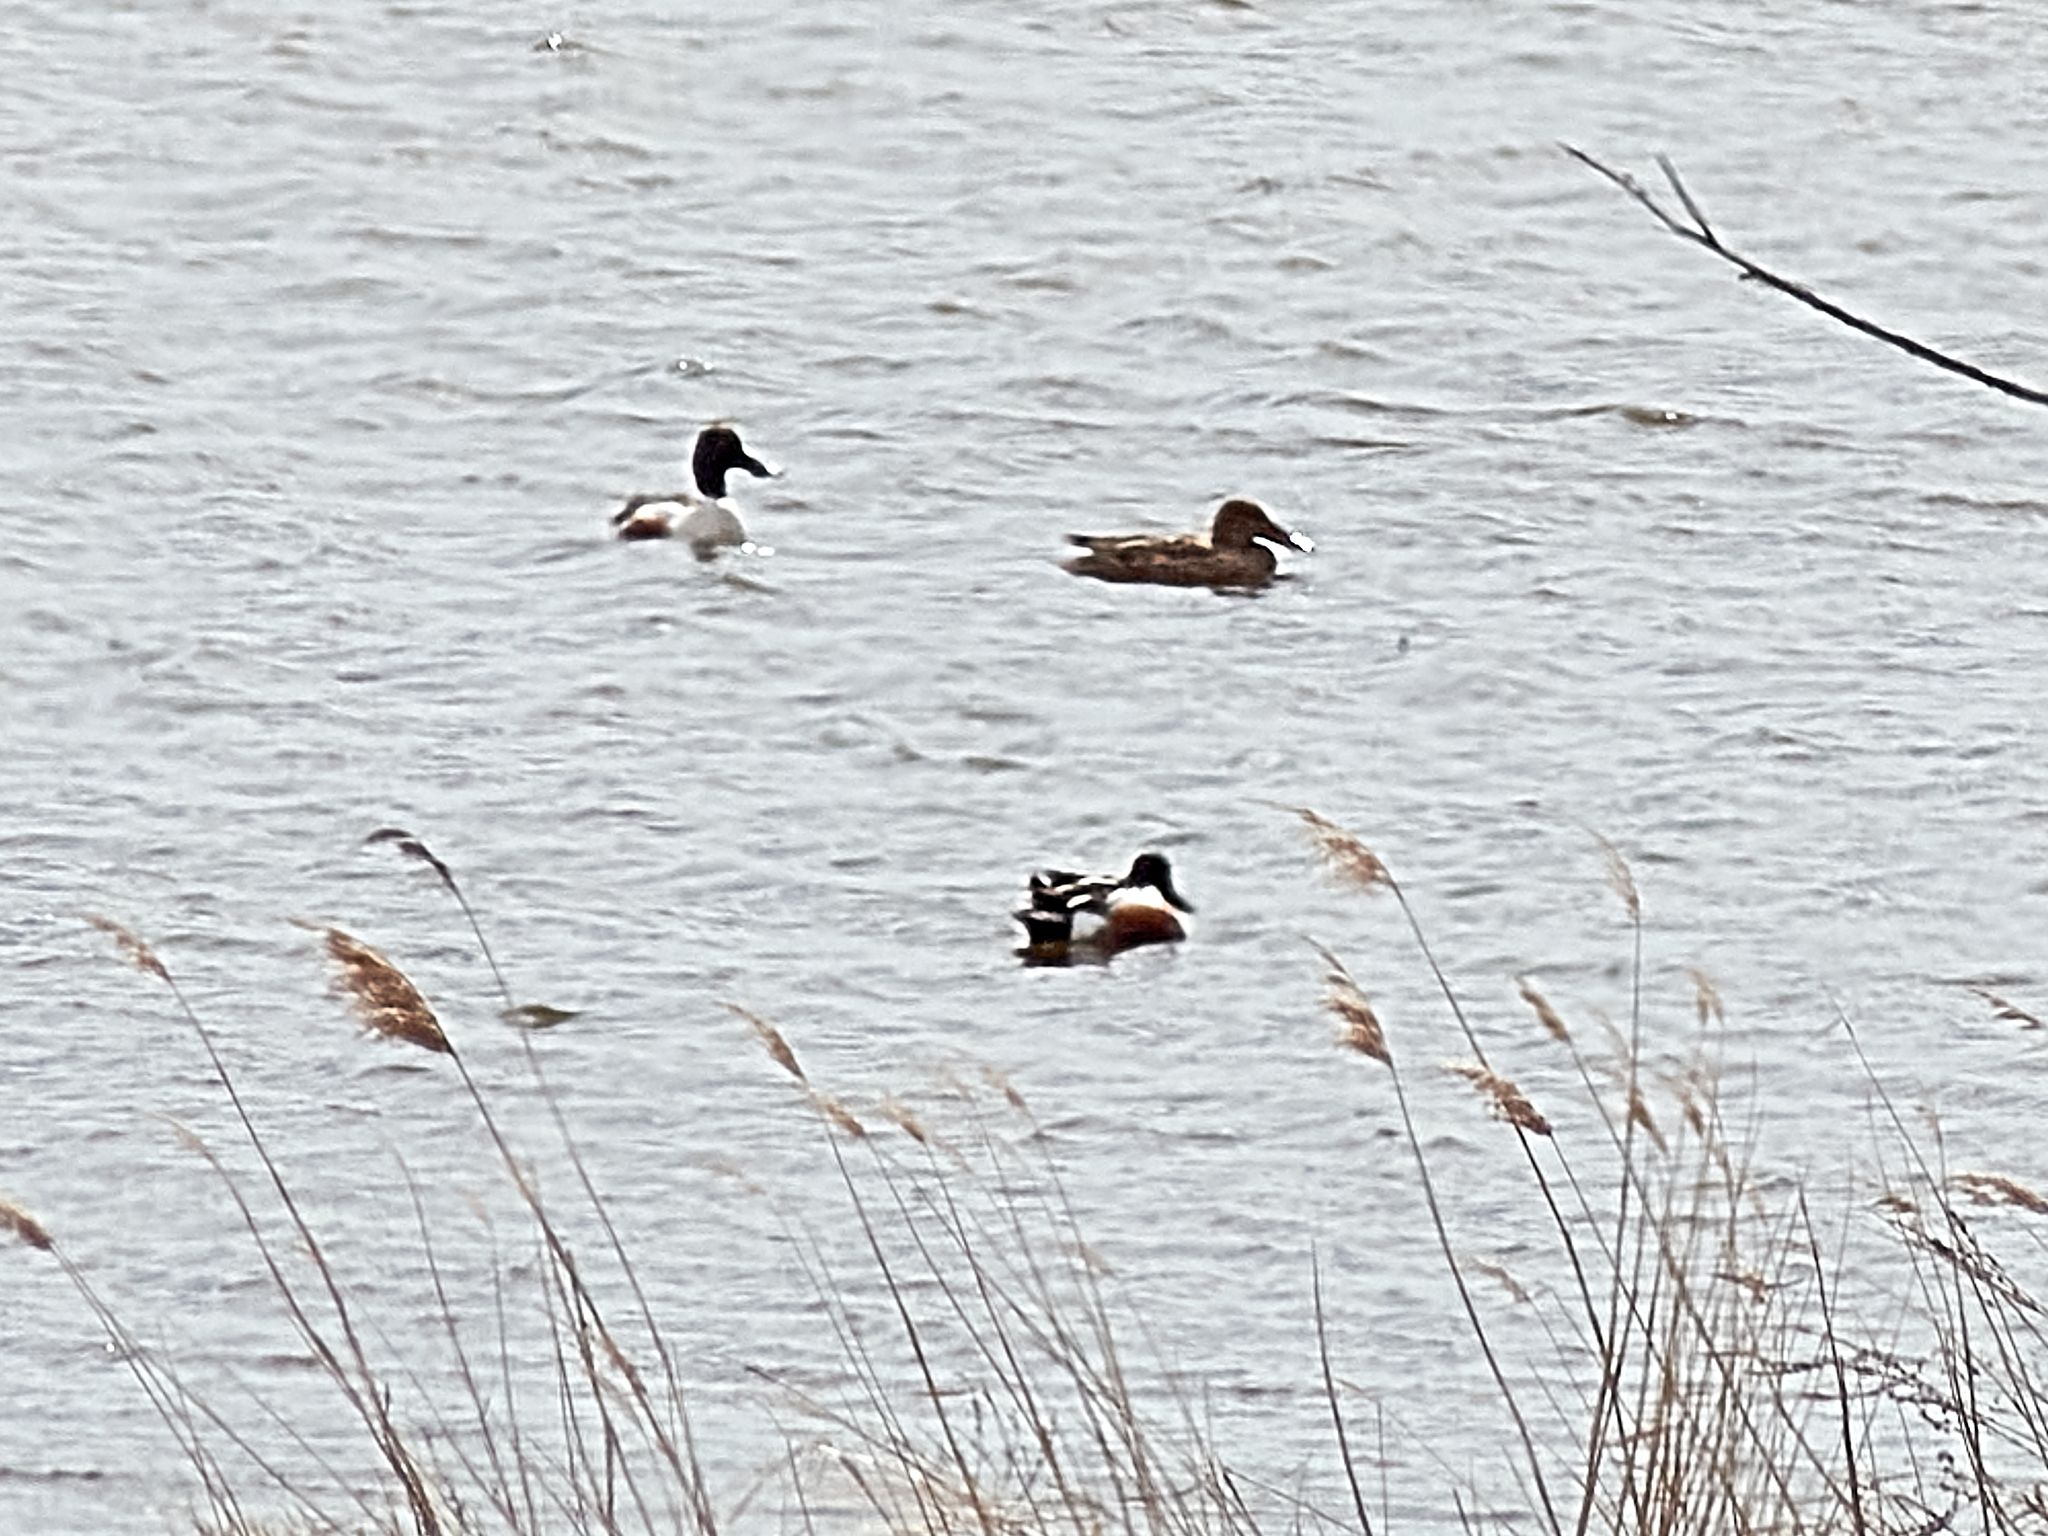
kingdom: Animalia
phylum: Chordata
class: Aves
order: Anseriformes
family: Anatidae
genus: Spatula
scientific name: Spatula clypeata
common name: Northern shoveler
